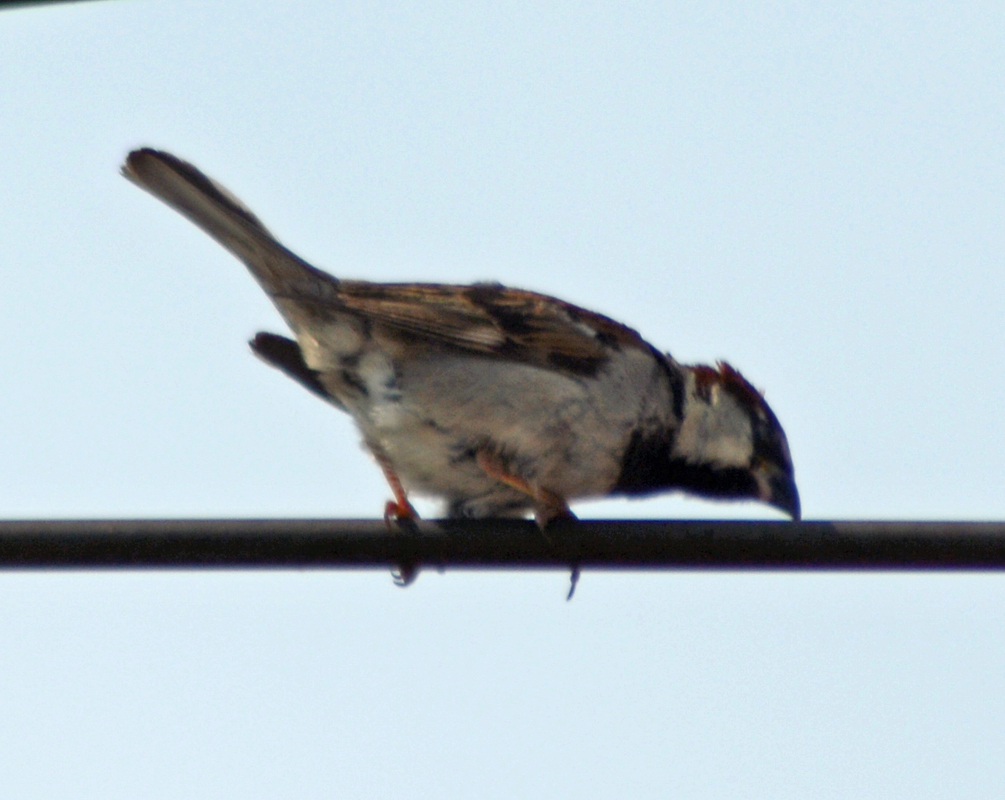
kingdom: Animalia
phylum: Chordata
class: Aves
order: Passeriformes
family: Passeridae
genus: Passer
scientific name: Passer domesticus
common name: House sparrow
